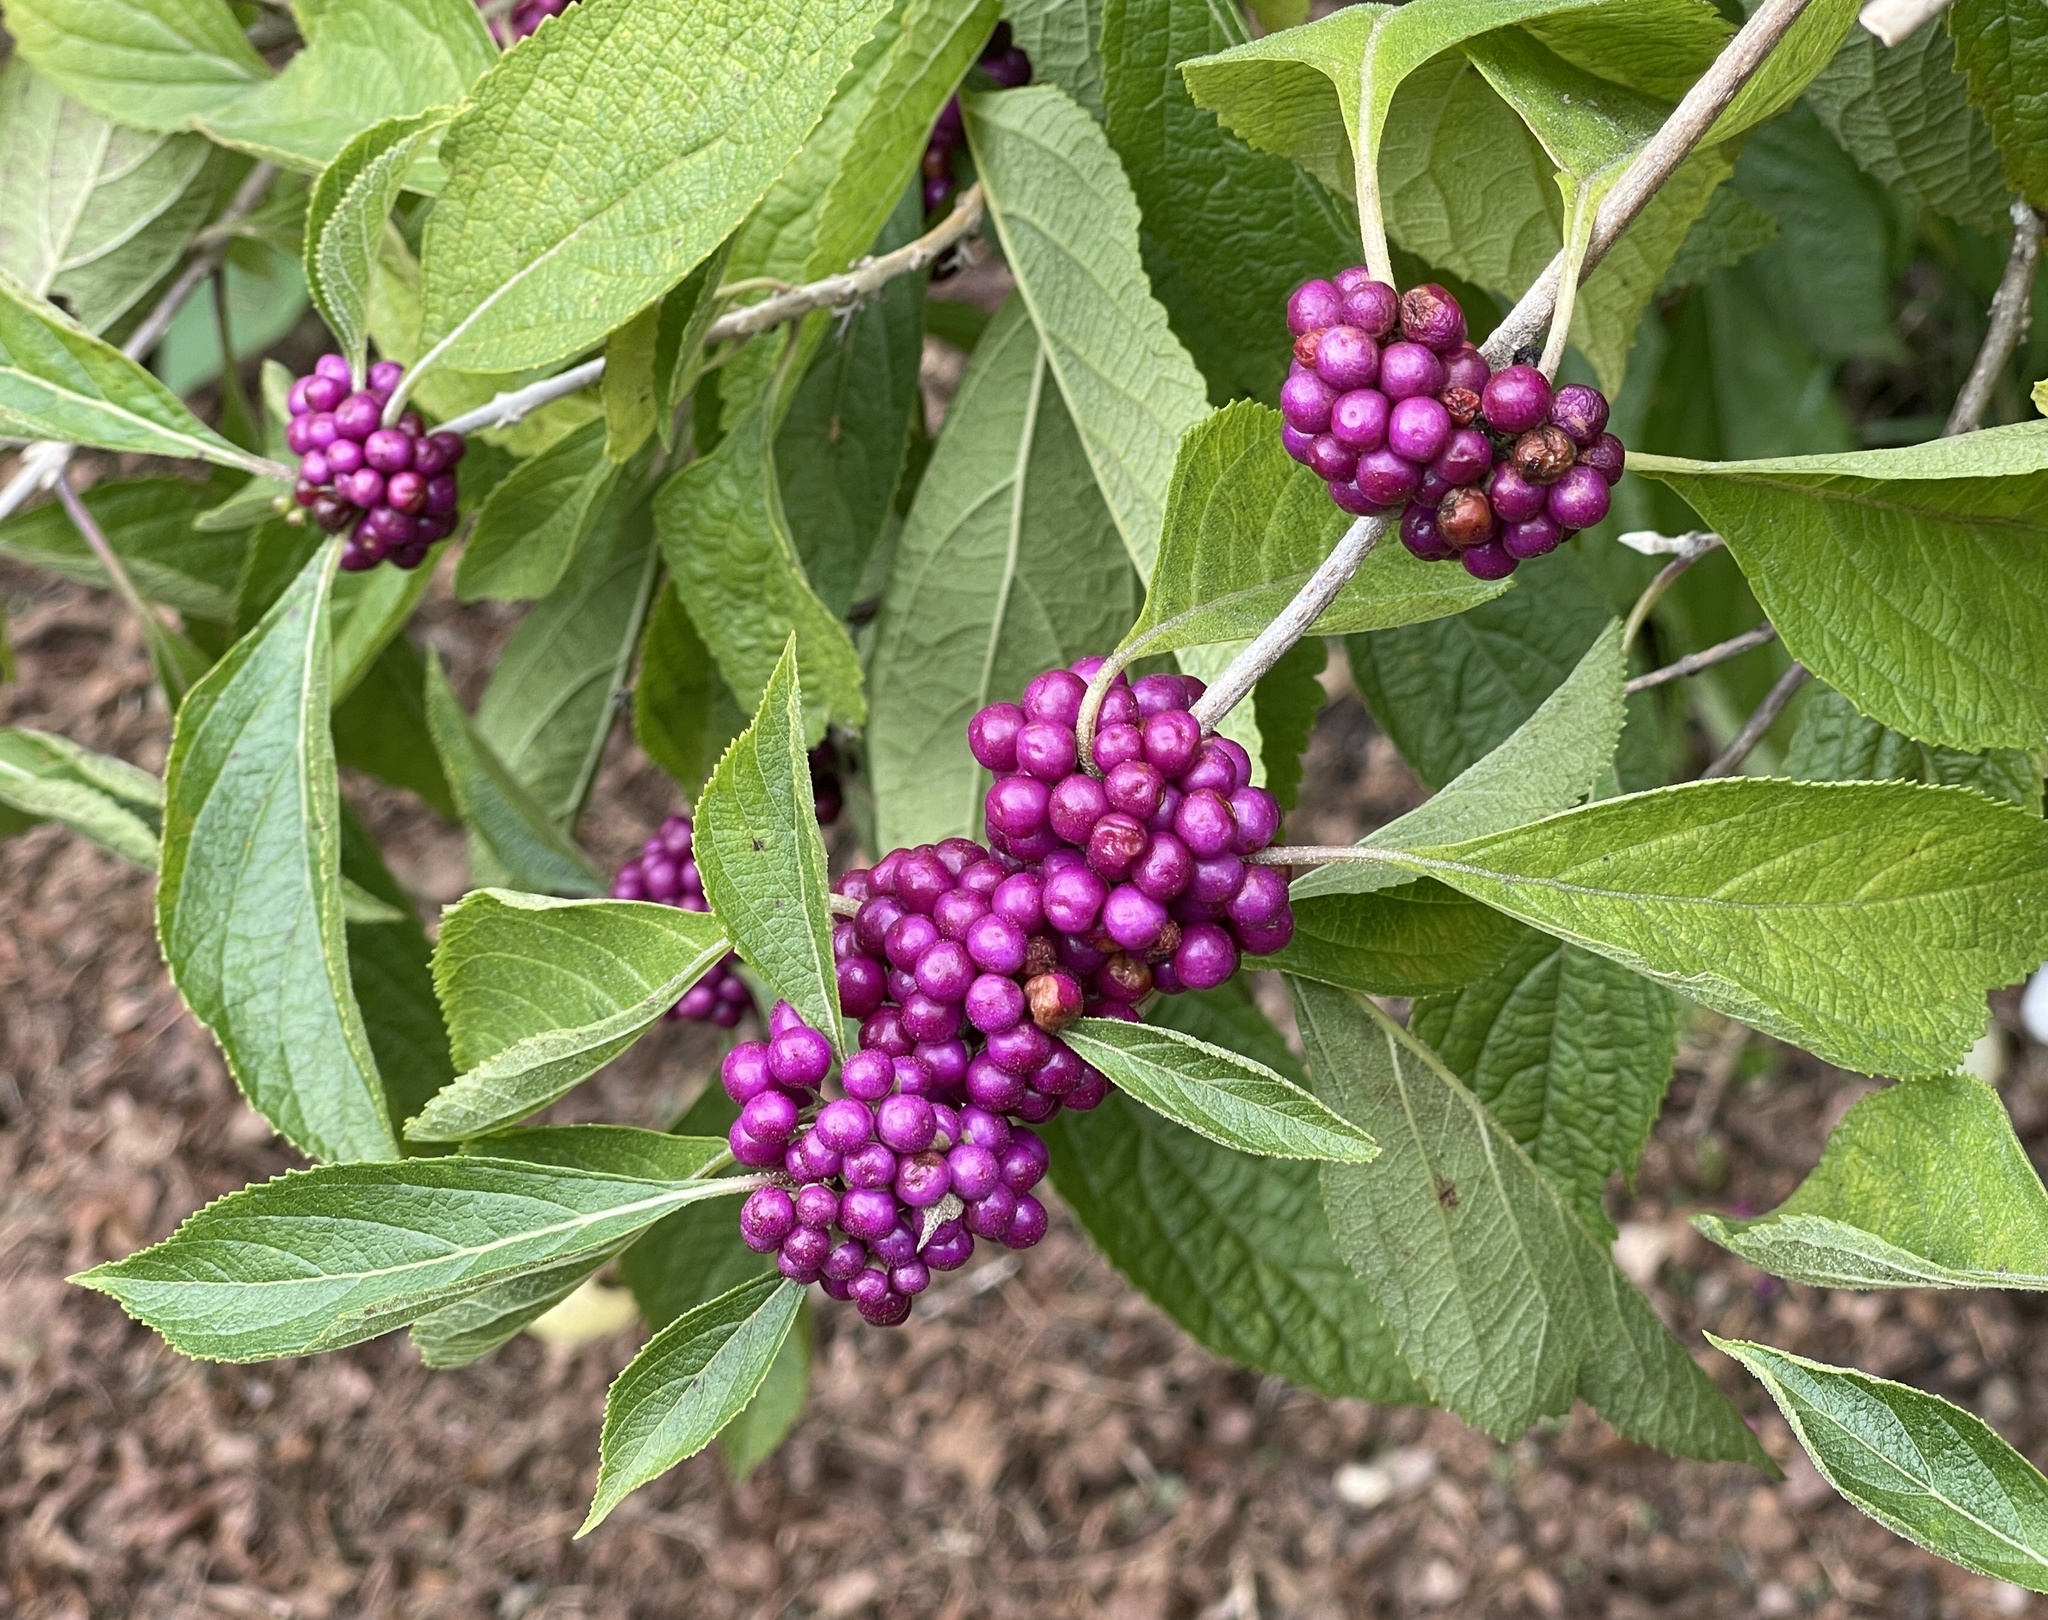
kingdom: Plantae
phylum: Tracheophyta
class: Magnoliopsida
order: Lamiales
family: Lamiaceae
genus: Callicarpa
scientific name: Callicarpa americana
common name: American beautyberry
